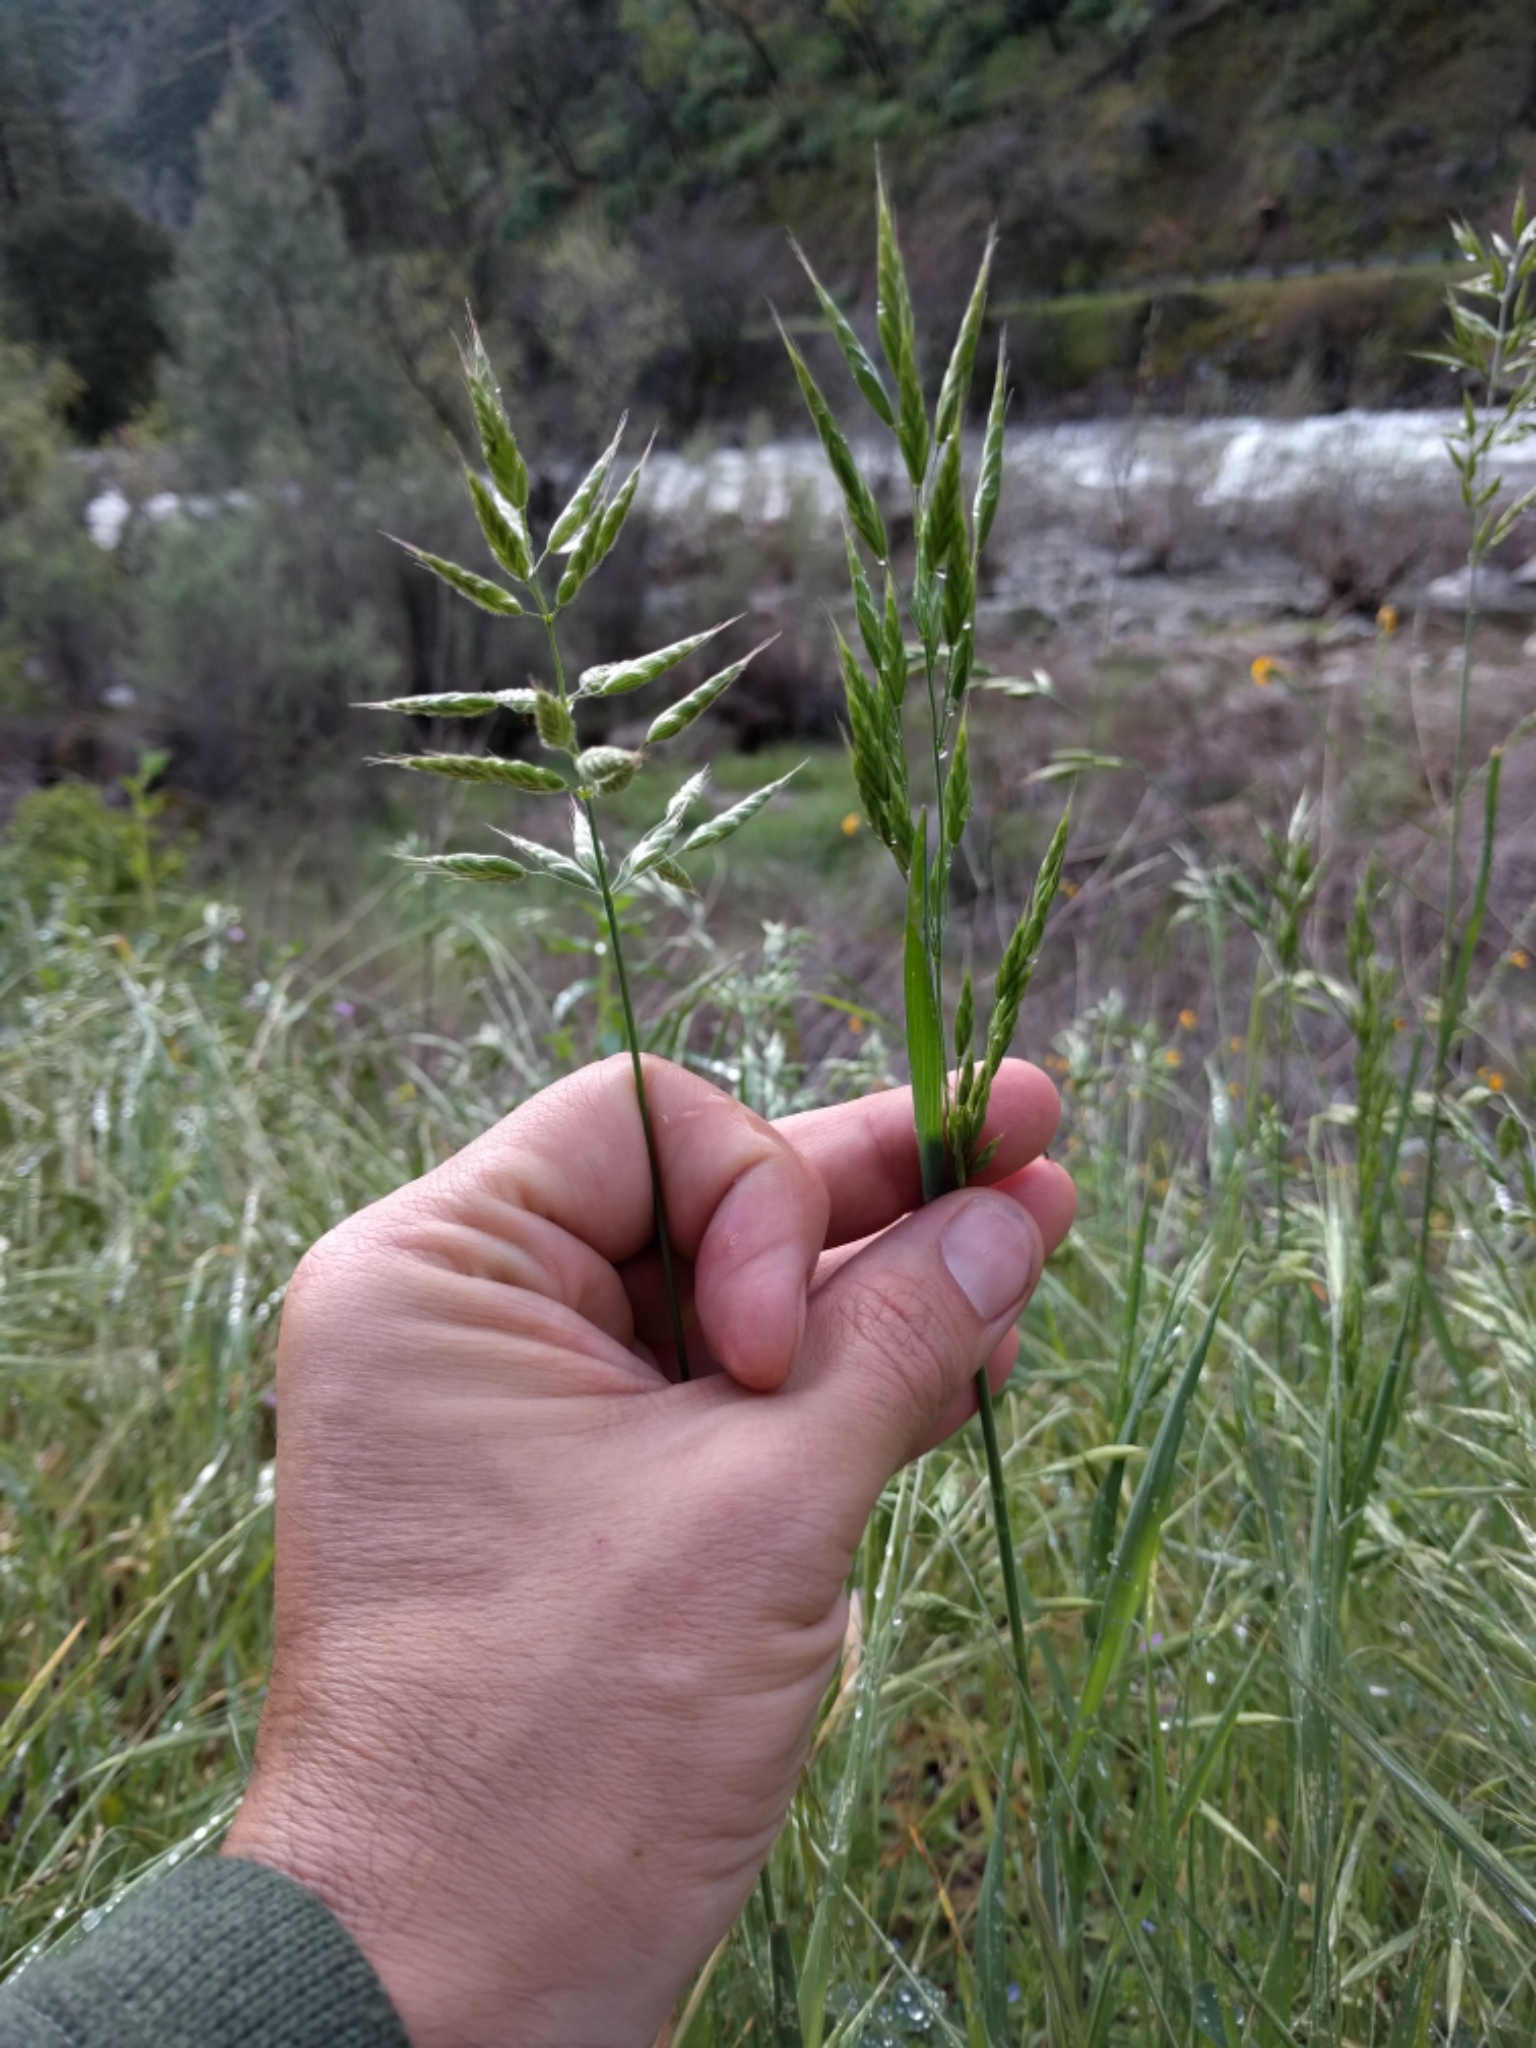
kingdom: Plantae
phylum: Tracheophyta
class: Liliopsida
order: Poales
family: Poaceae
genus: Bromus
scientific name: Bromus hordeaceus
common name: Soft brome
